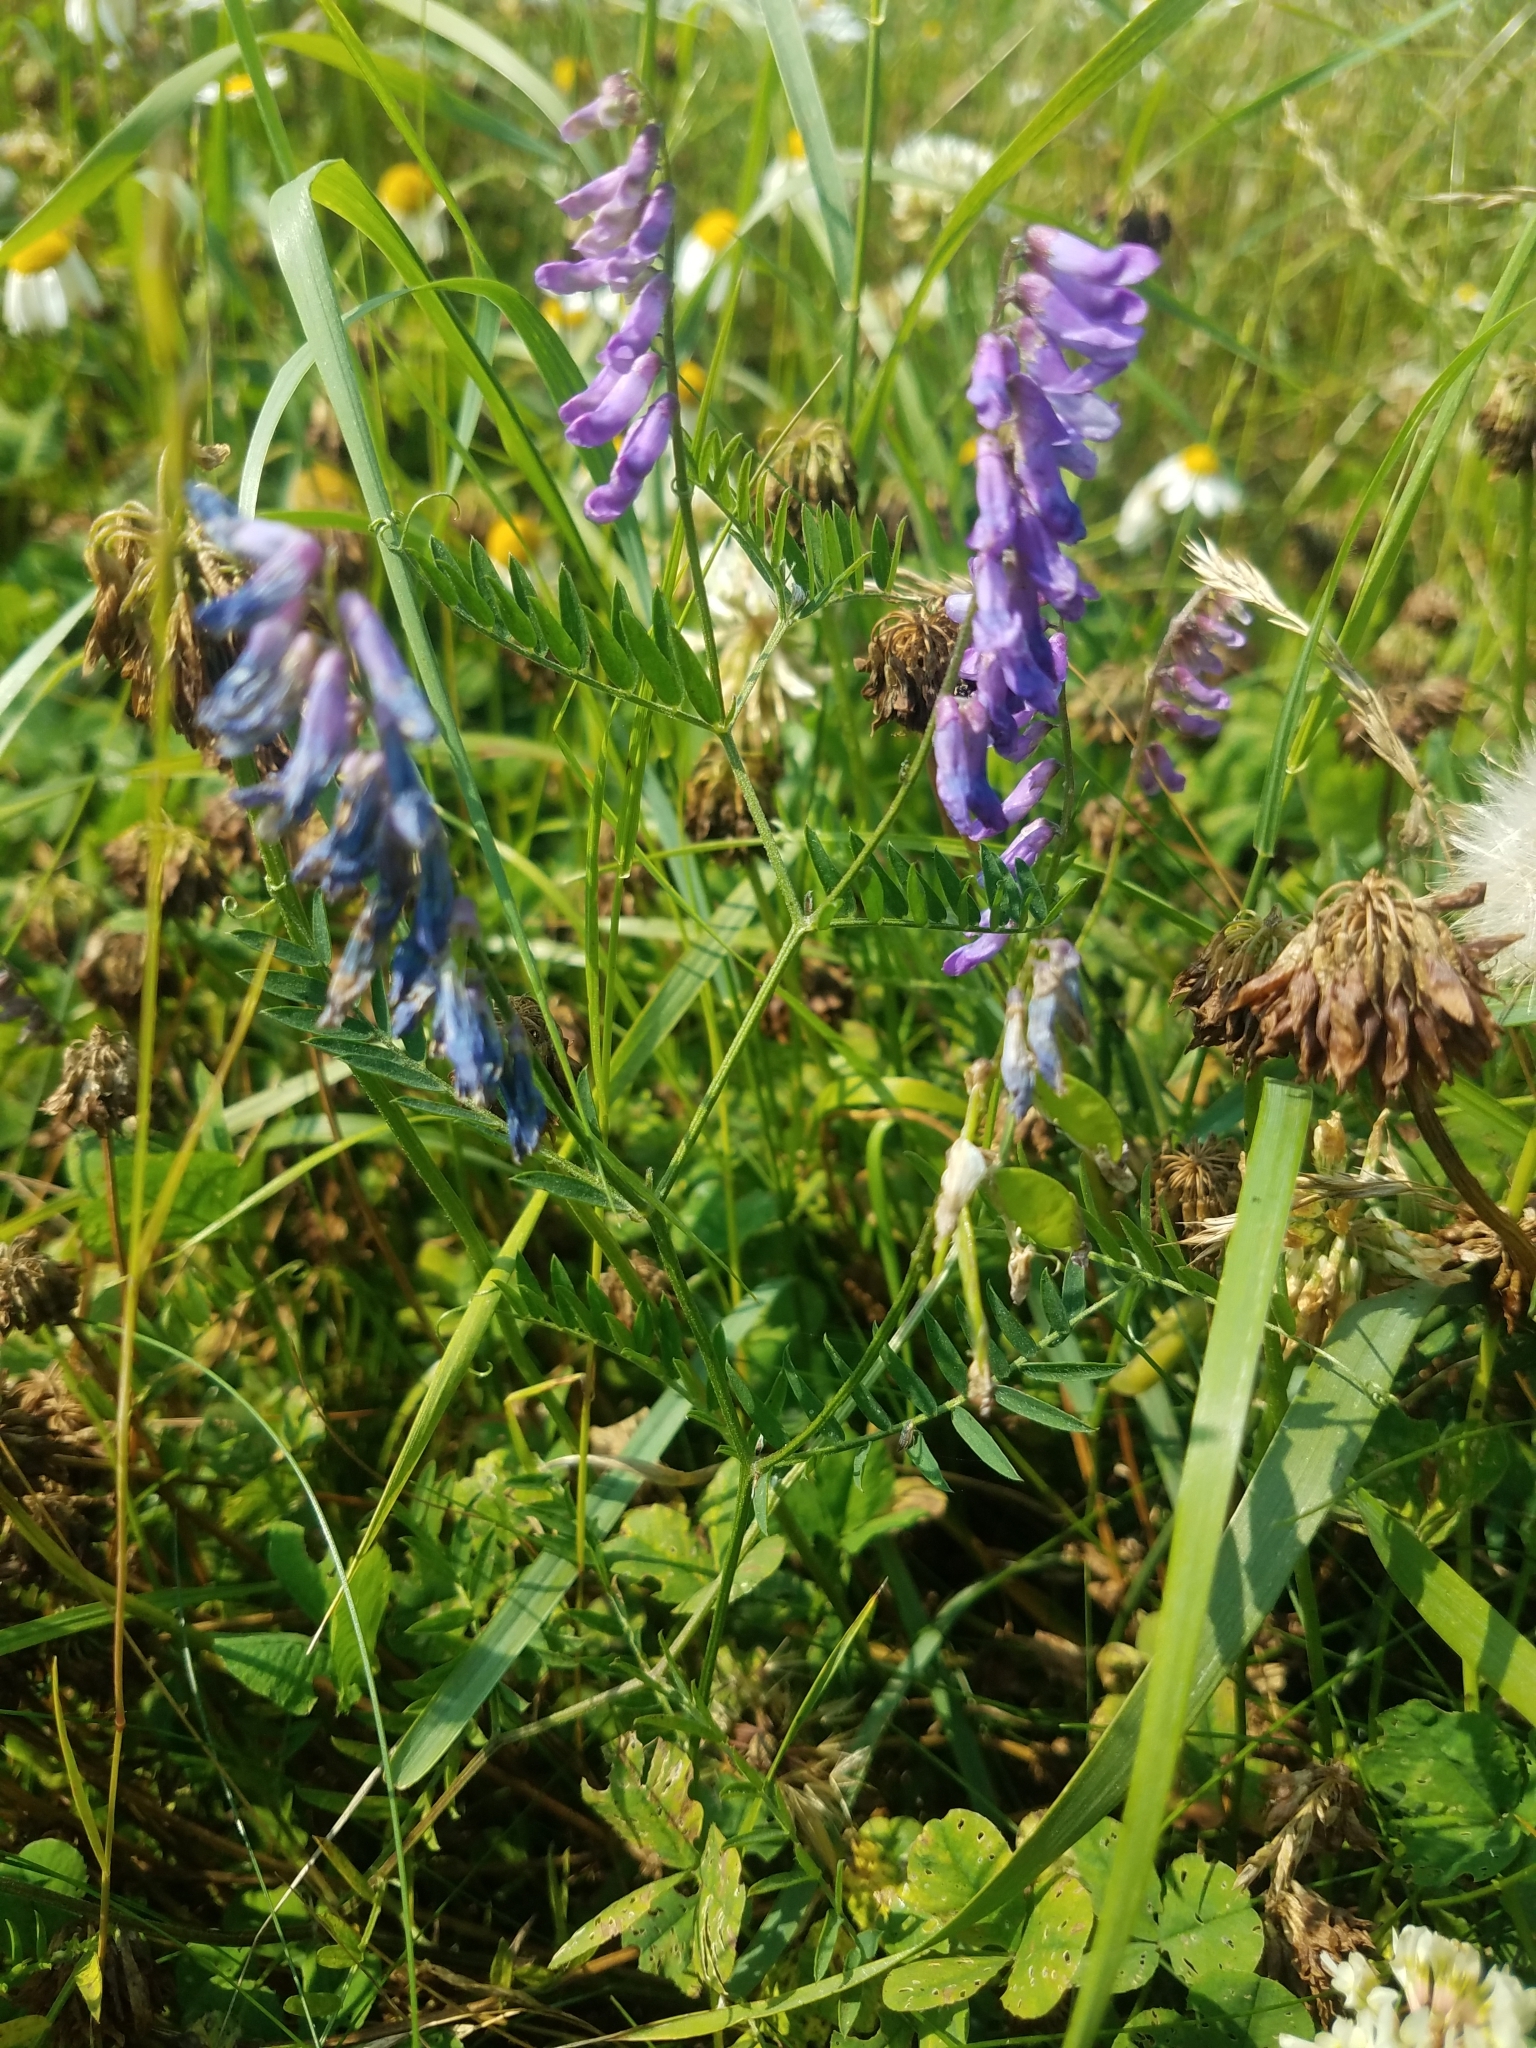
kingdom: Plantae
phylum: Tracheophyta
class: Magnoliopsida
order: Fabales
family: Fabaceae
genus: Vicia
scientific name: Vicia cracca
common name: Bird vetch
